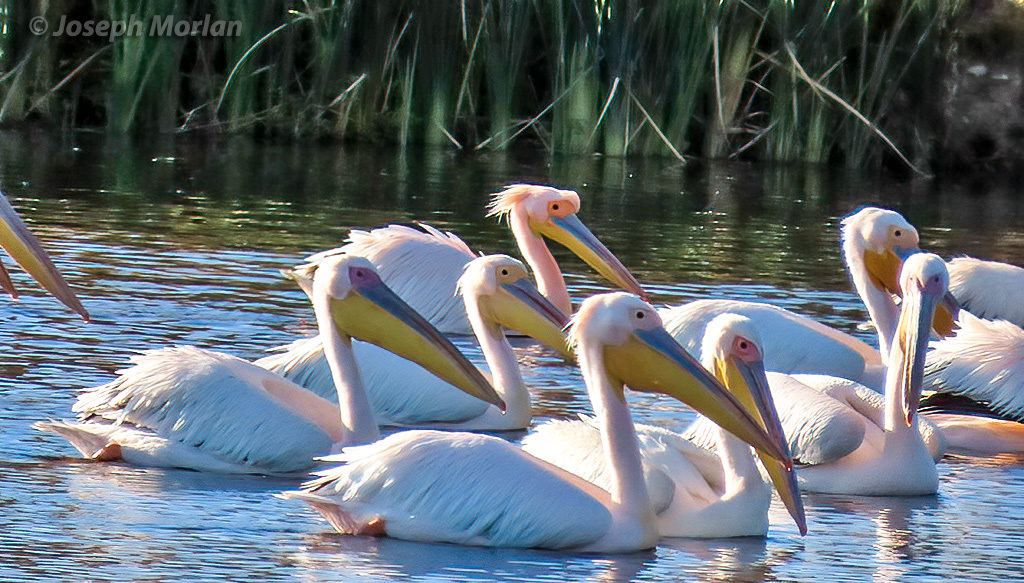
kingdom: Animalia
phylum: Chordata
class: Aves
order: Pelecaniformes
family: Pelecanidae
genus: Pelecanus
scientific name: Pelecanus onocrotalus
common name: Great white pelican
